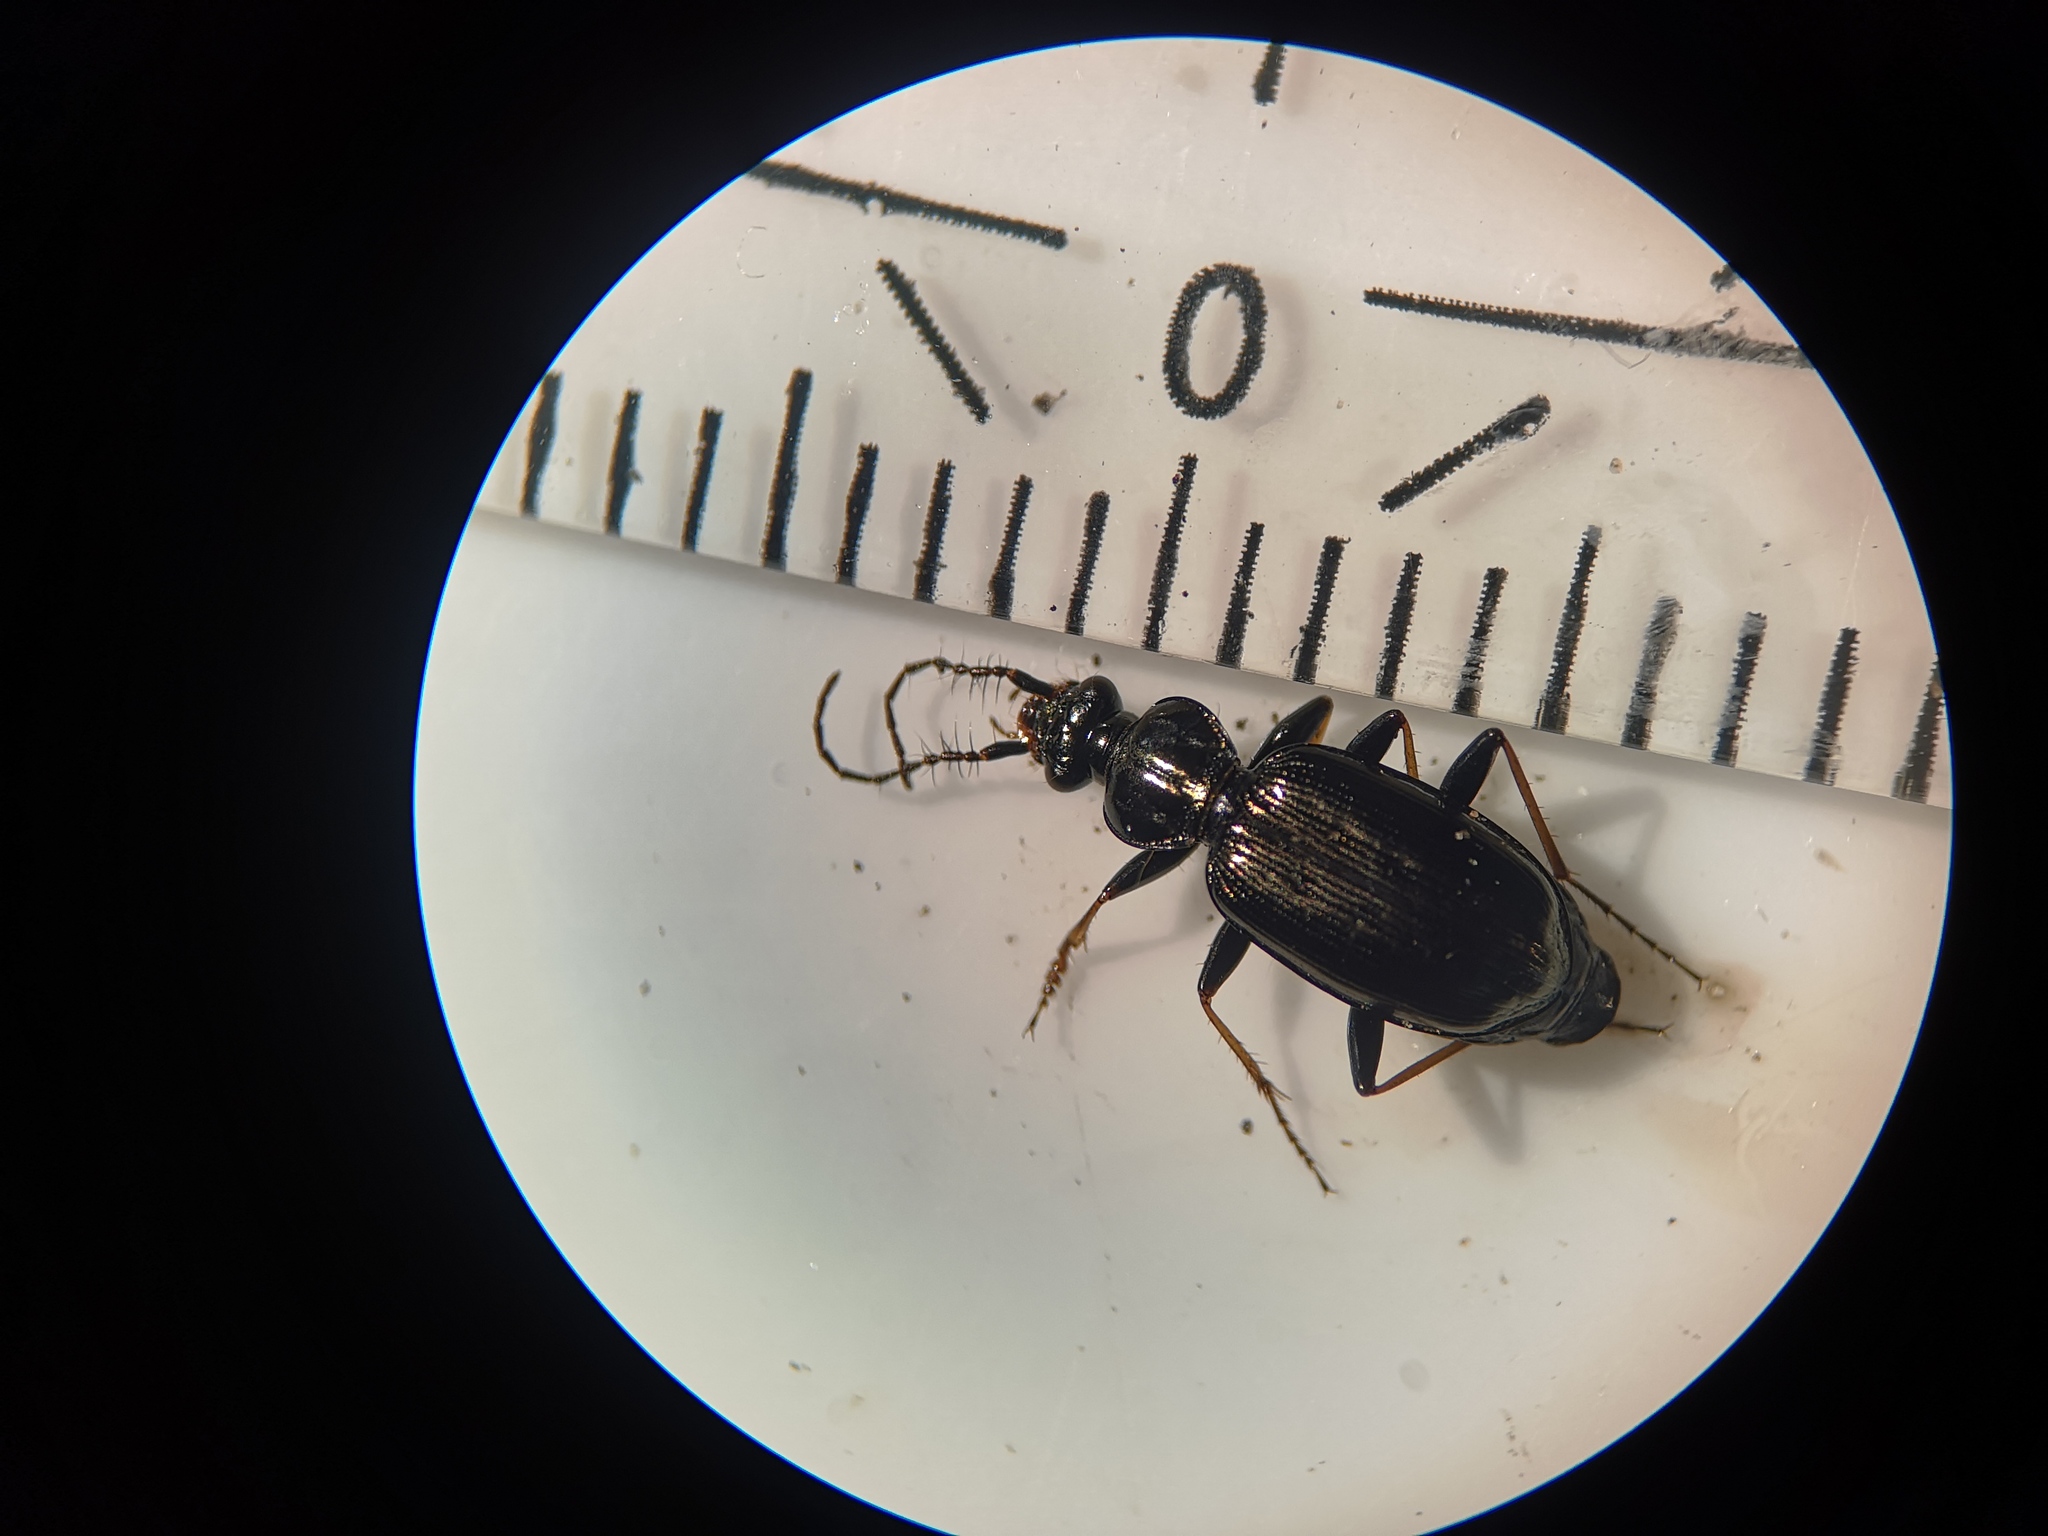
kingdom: Animalia
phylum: Arthropoda
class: Insecta
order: Coleoptera
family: Carabidae
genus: Loricera
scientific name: Loricera pilicornis
